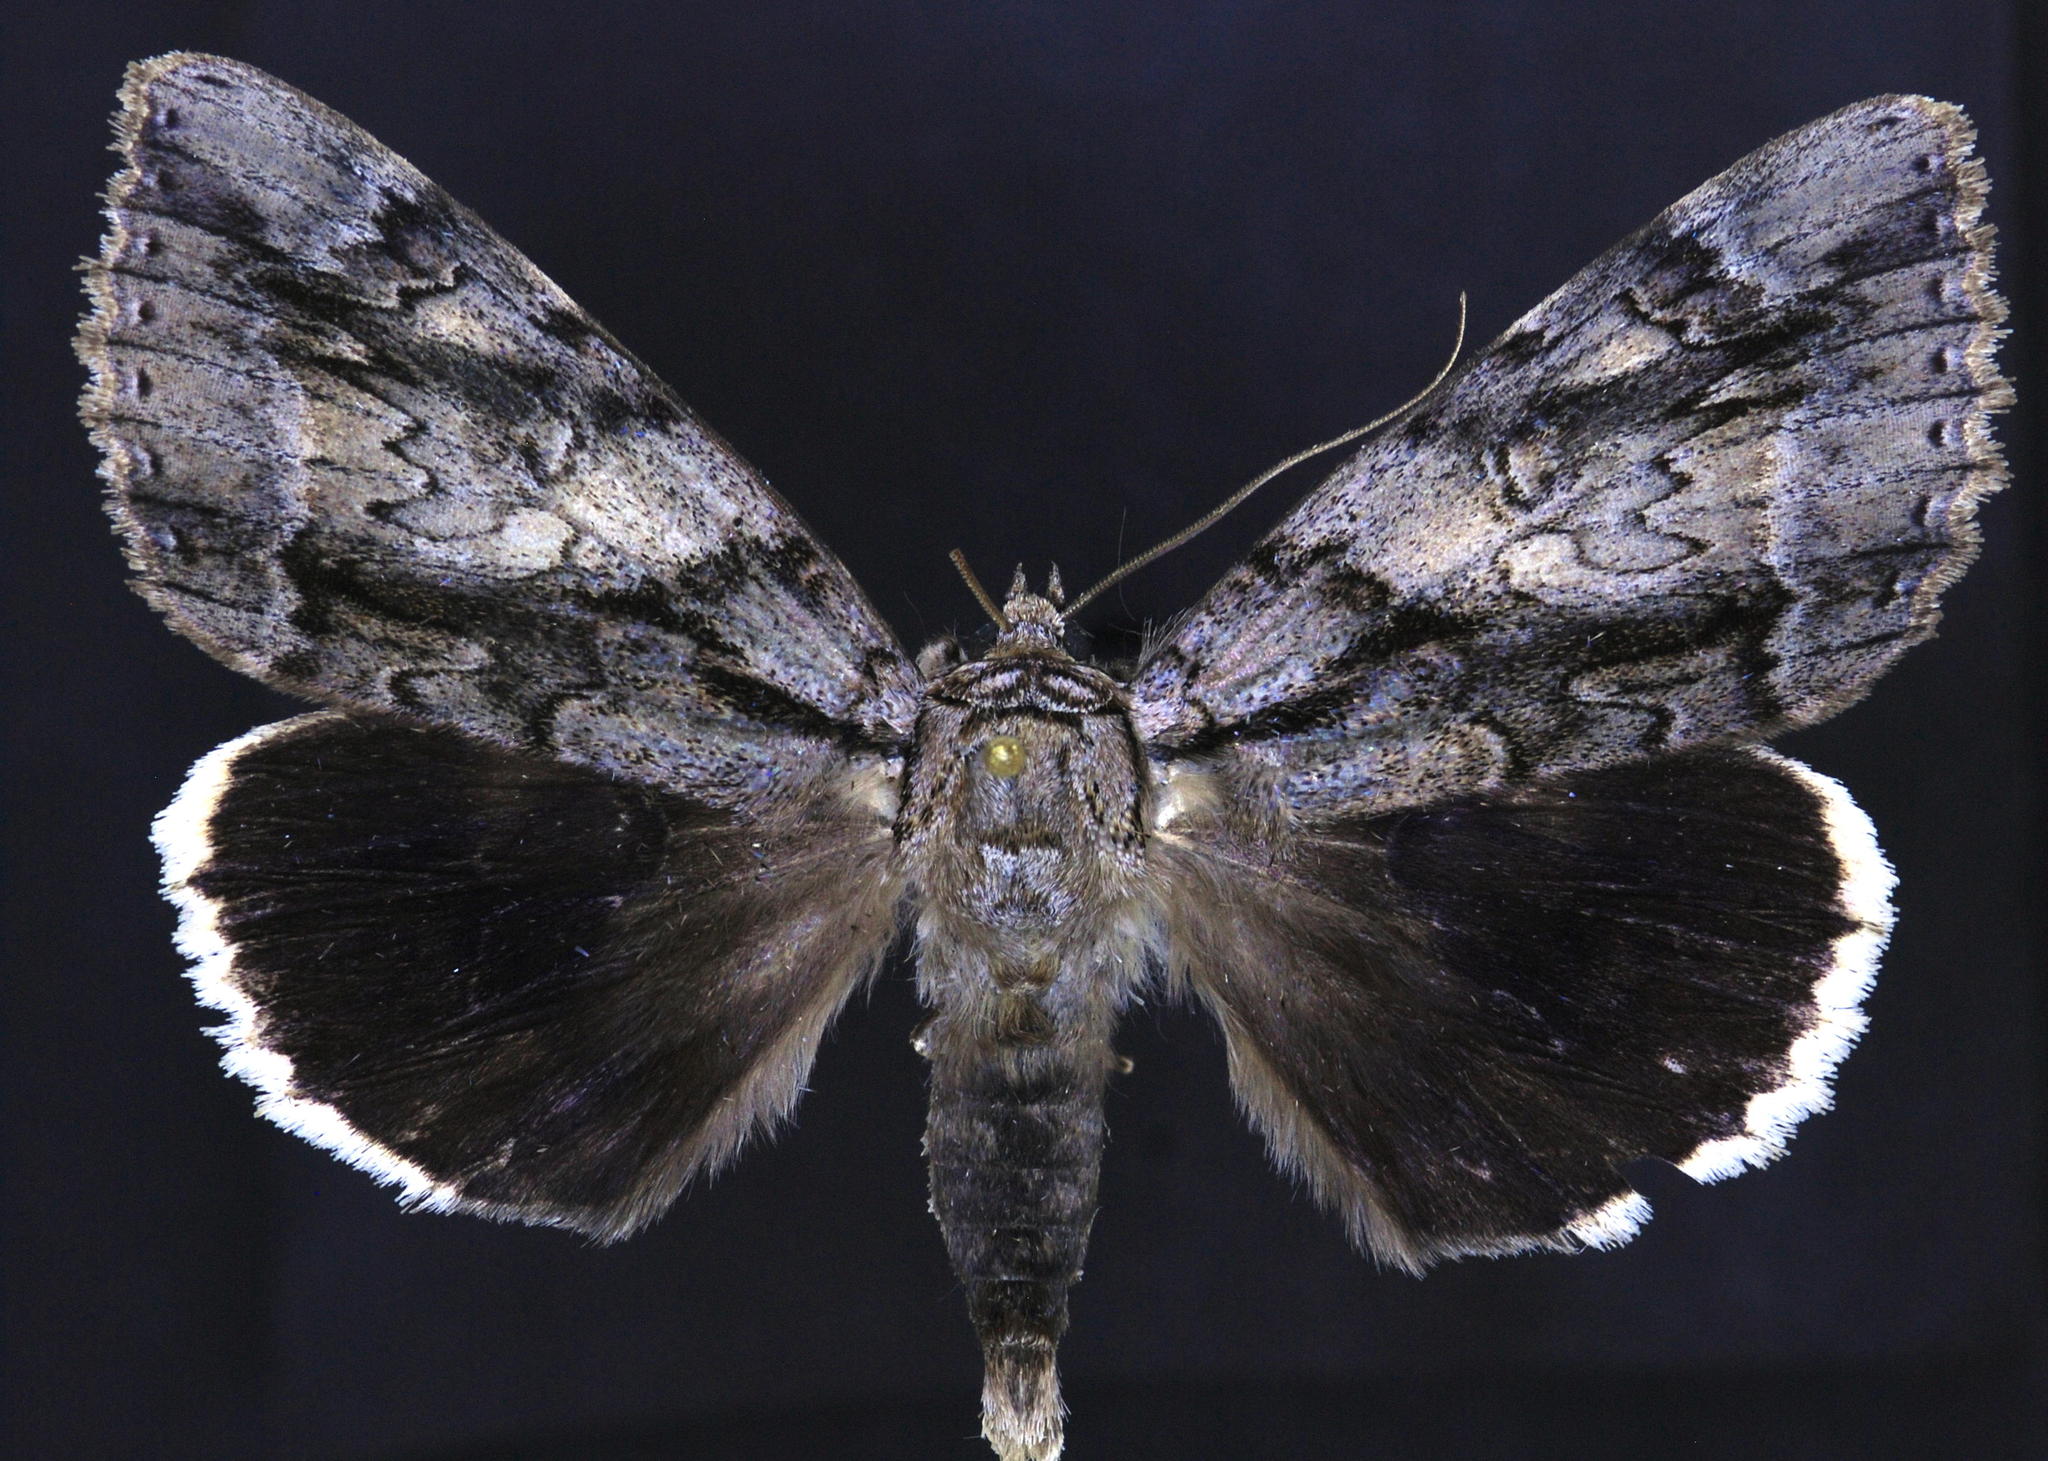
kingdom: Animalia
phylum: Arthropoda
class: Insecta
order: Lepidoptera
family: Erebidae
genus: Catocala
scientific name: Catocala vidua
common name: The widow
